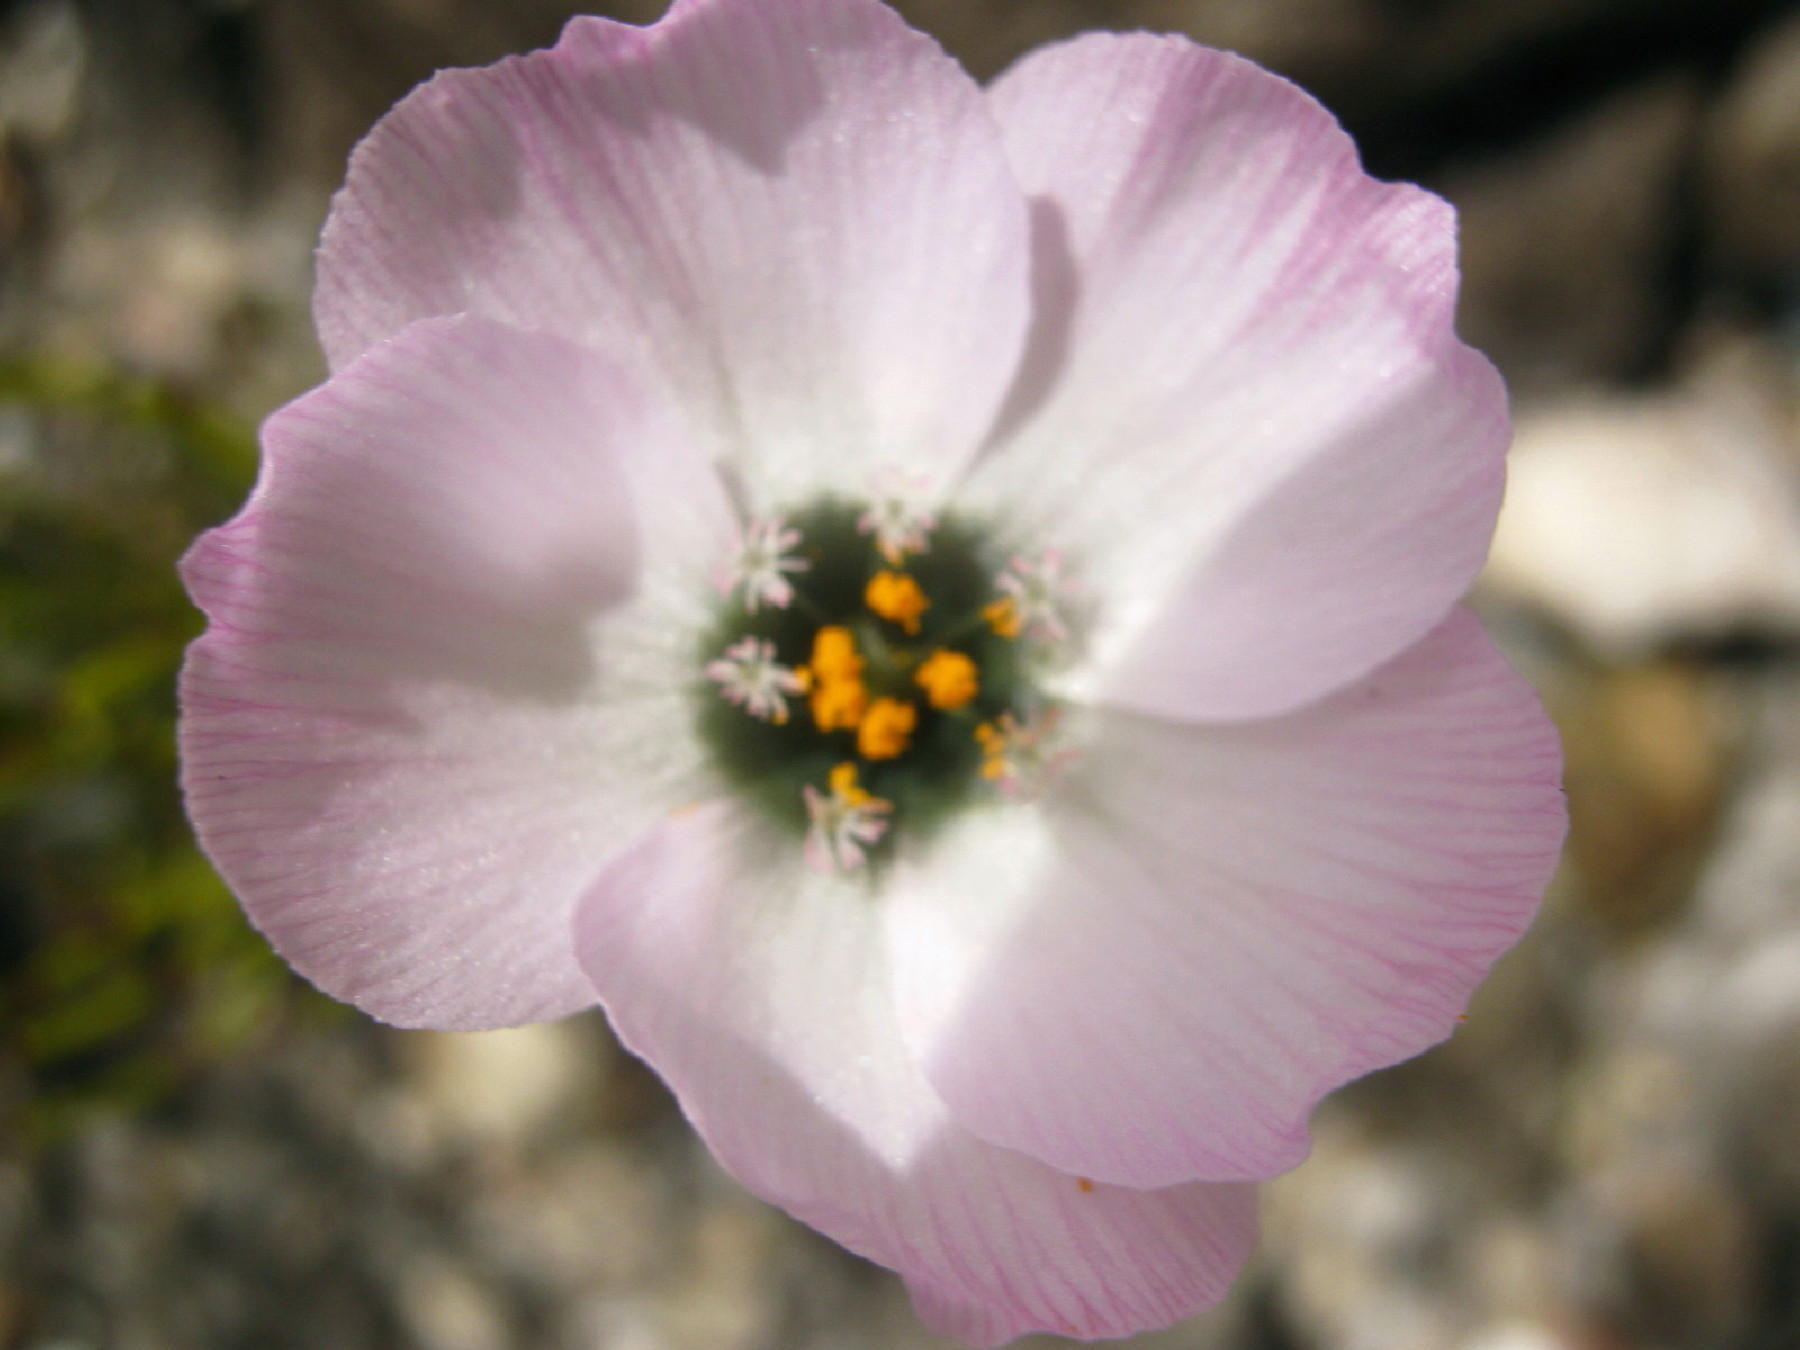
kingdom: Plantae
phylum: Tracheophyta
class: Magnoliopsida
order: Caryophyllales
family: Droseraceae
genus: Drosera
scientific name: Drosera cistiflora
